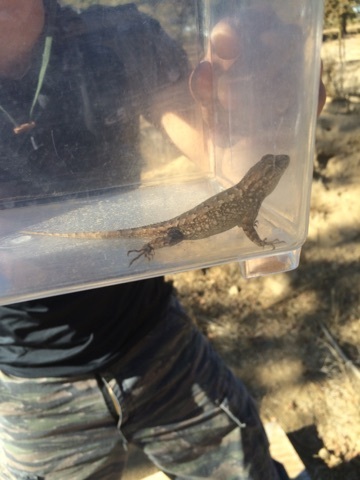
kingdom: Animalia
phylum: Chordata
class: Squamata
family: Phrynosomatidae
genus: Sceloporus
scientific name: Sceloporus occidentalis
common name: Western fence lizard
